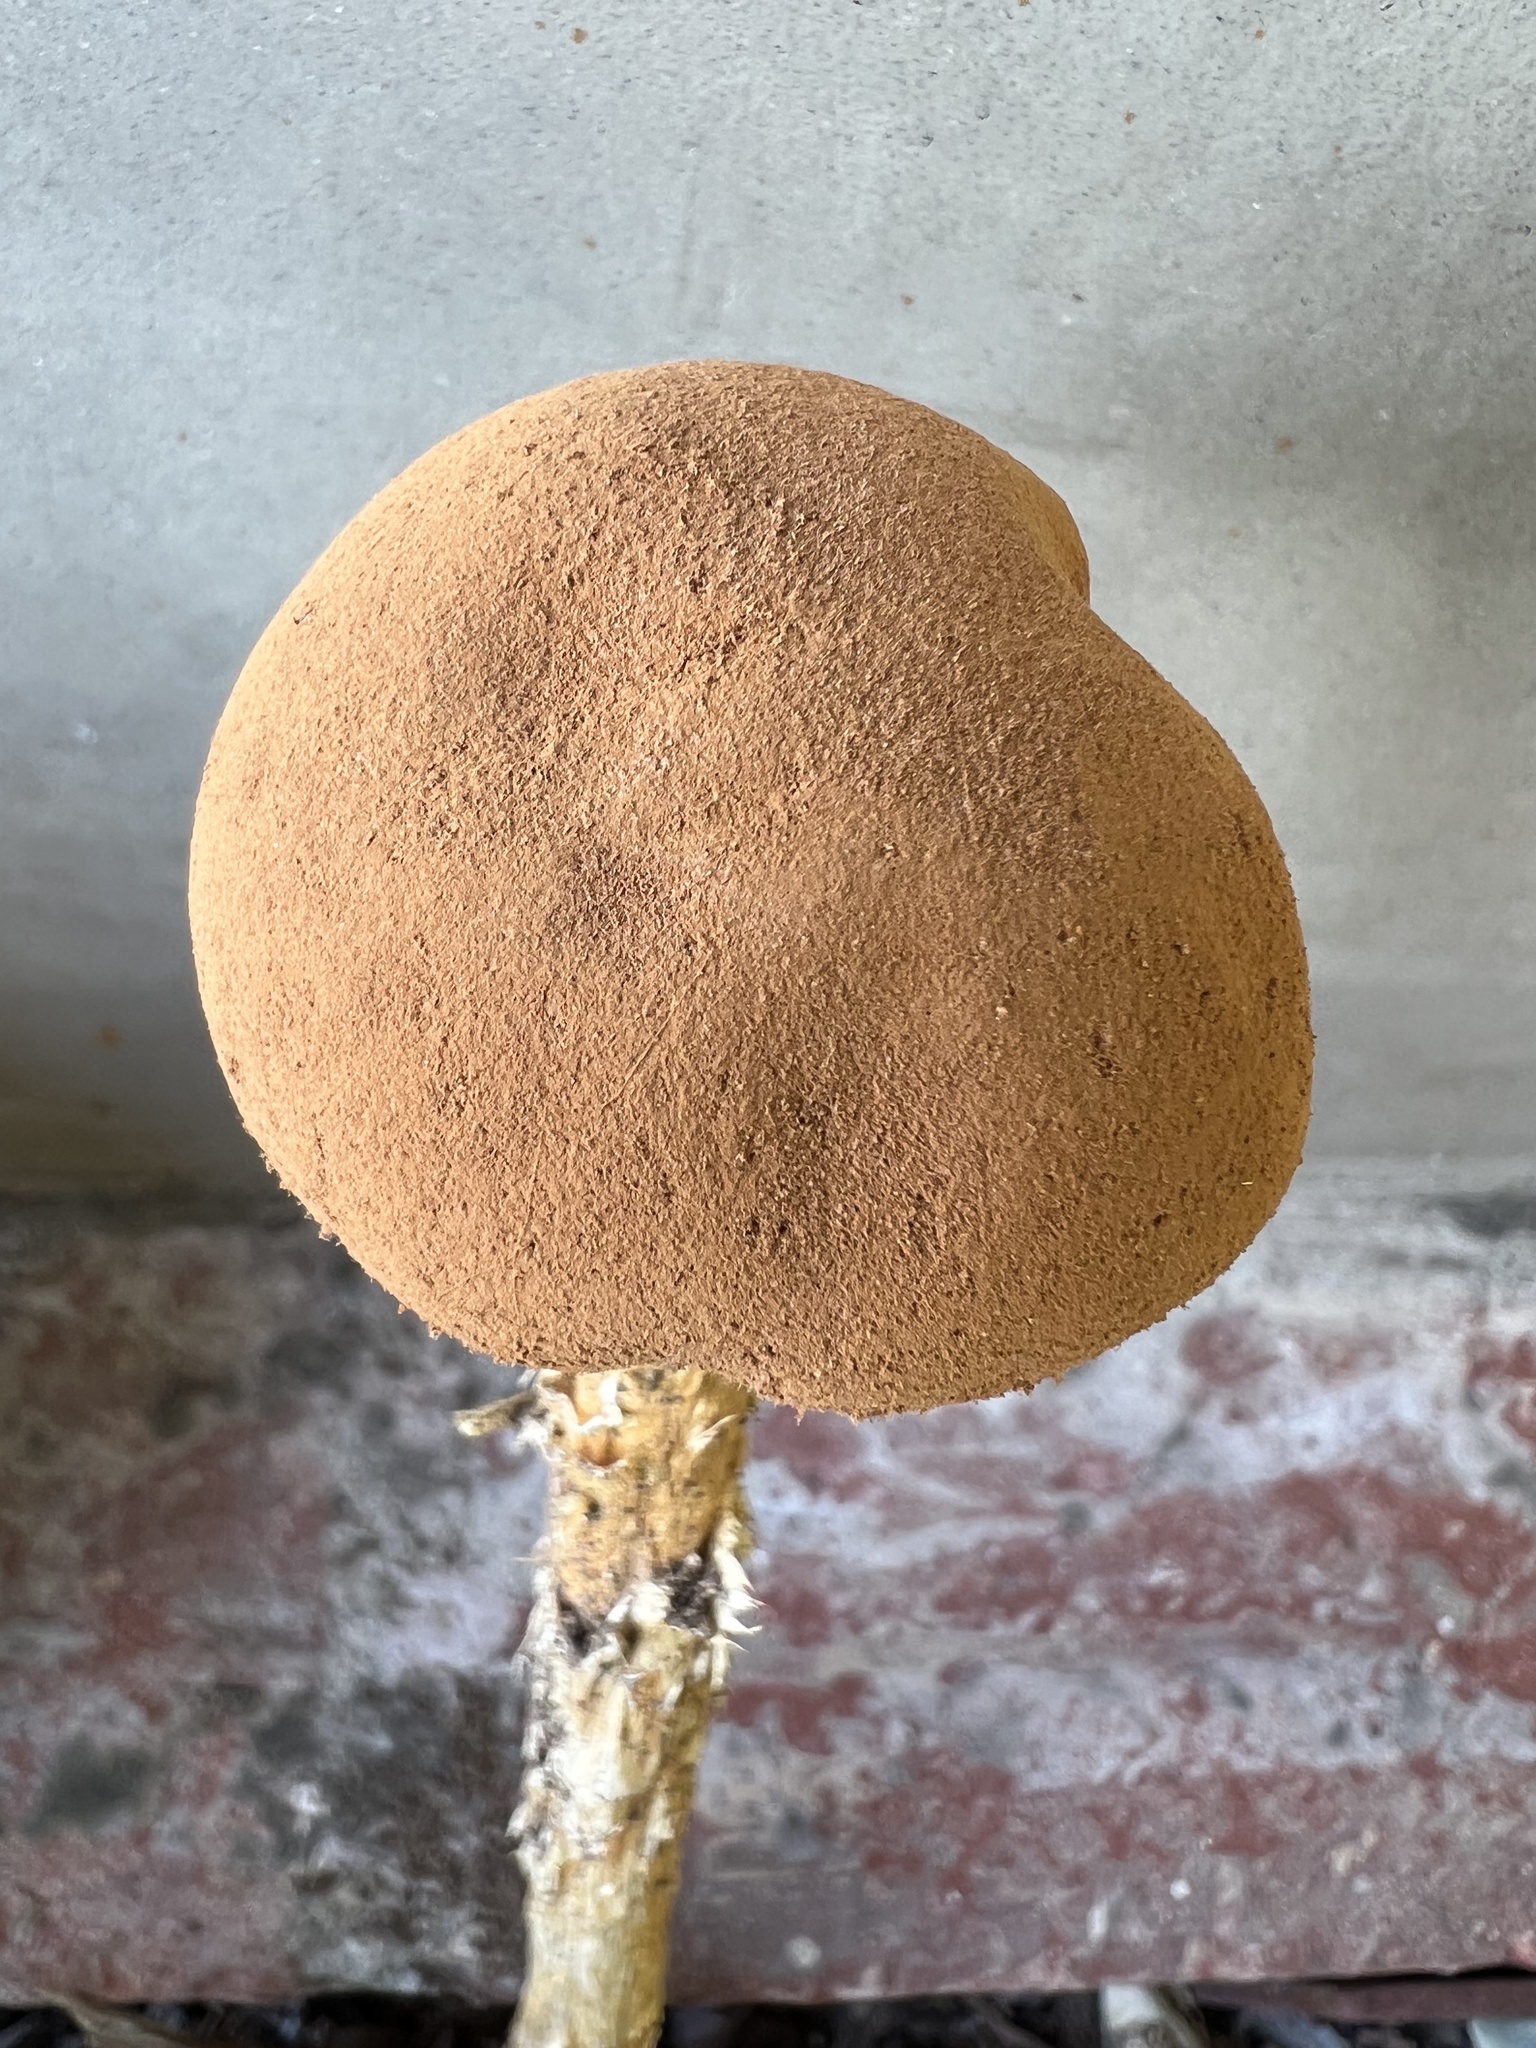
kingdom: Fungi
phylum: Basidiomycota
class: Agaricomycetes
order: Agaricales
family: Agaricaceae
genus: Battarrea
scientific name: Battarrea phalloides
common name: Sandy stiltball
